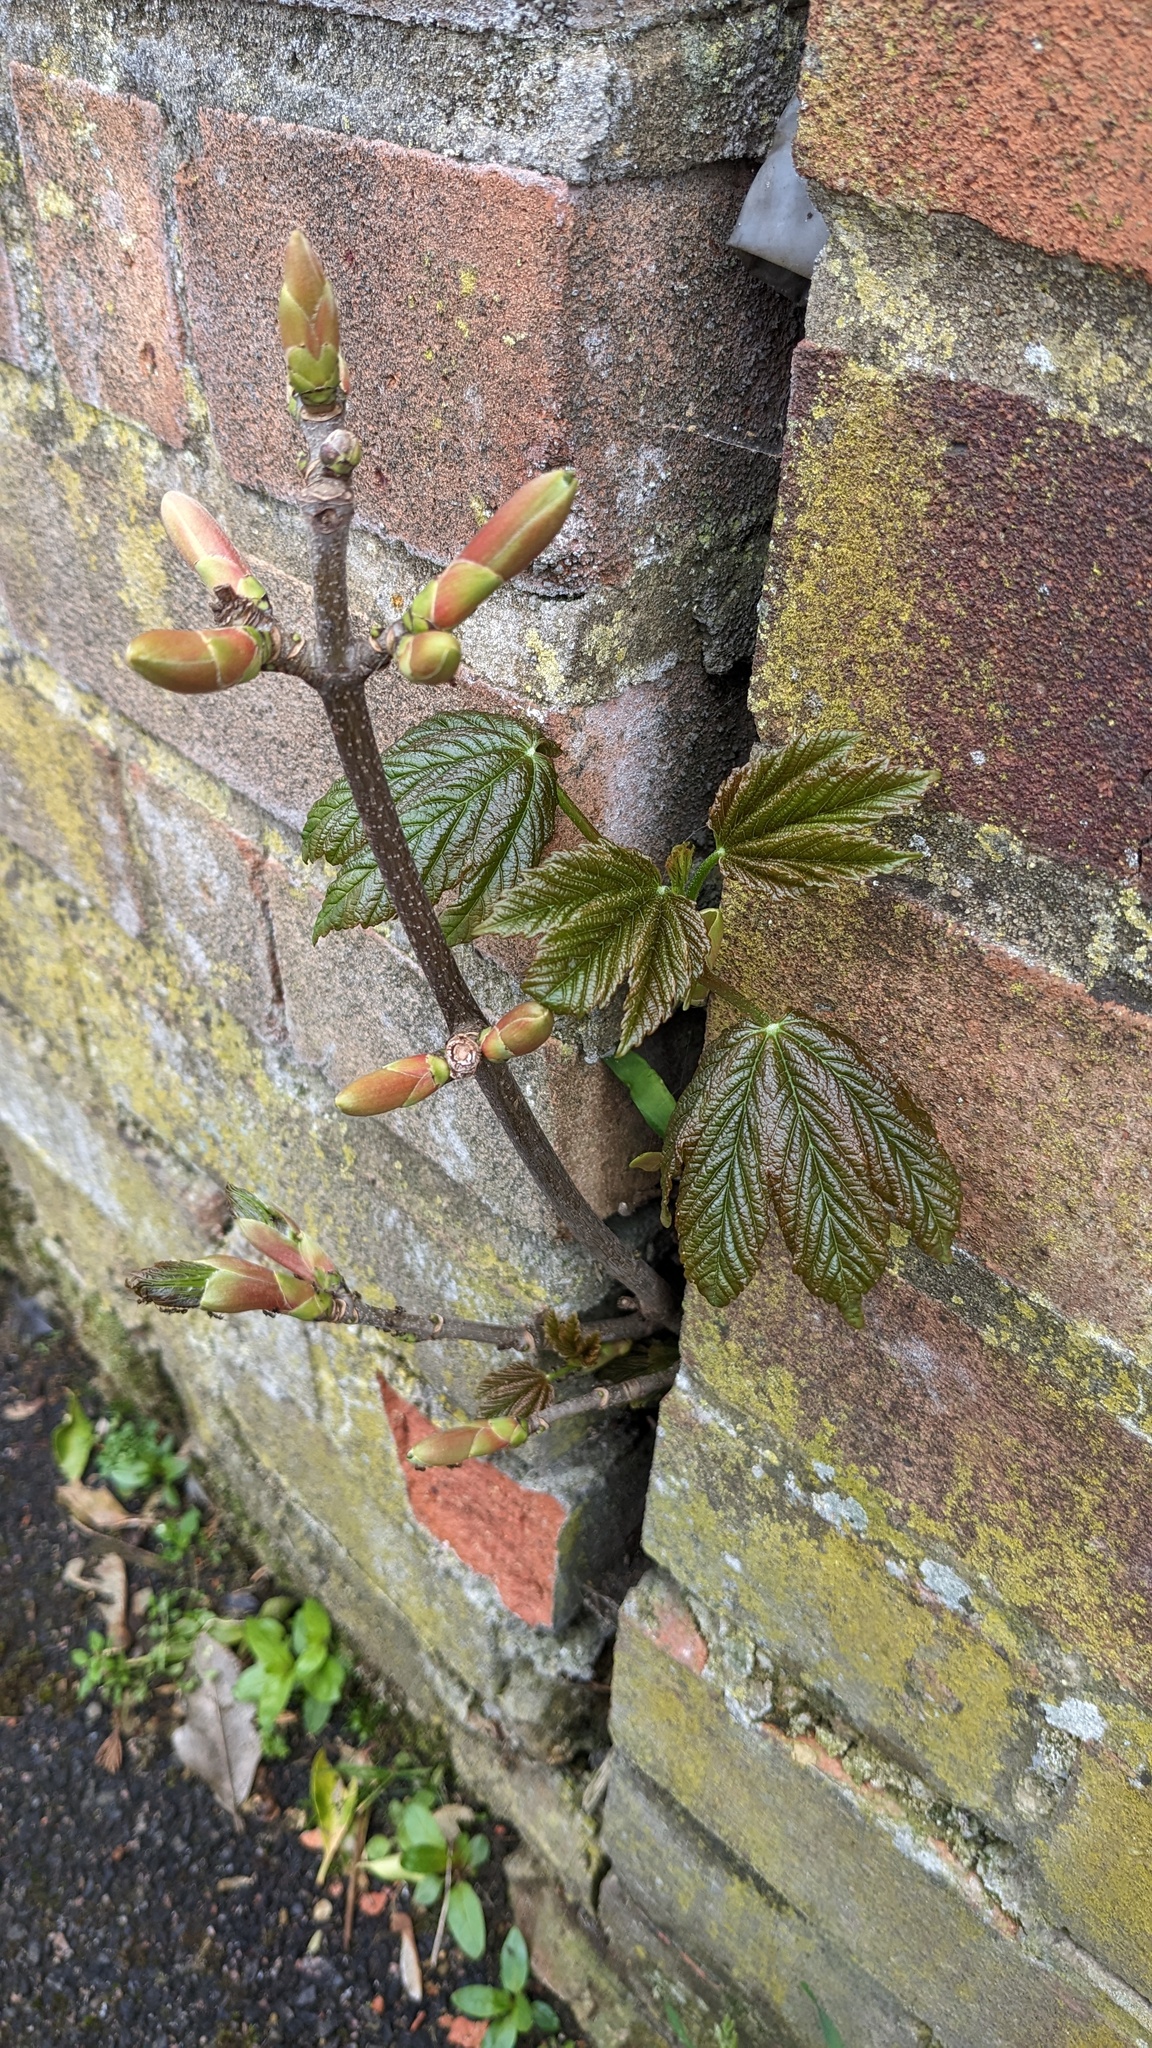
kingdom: Plantae
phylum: Tracheophyta
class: Magnoliopsida
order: Sapindales
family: Sapindaceae
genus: Acer
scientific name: Acer pseudoplatanus
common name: Sycamore
